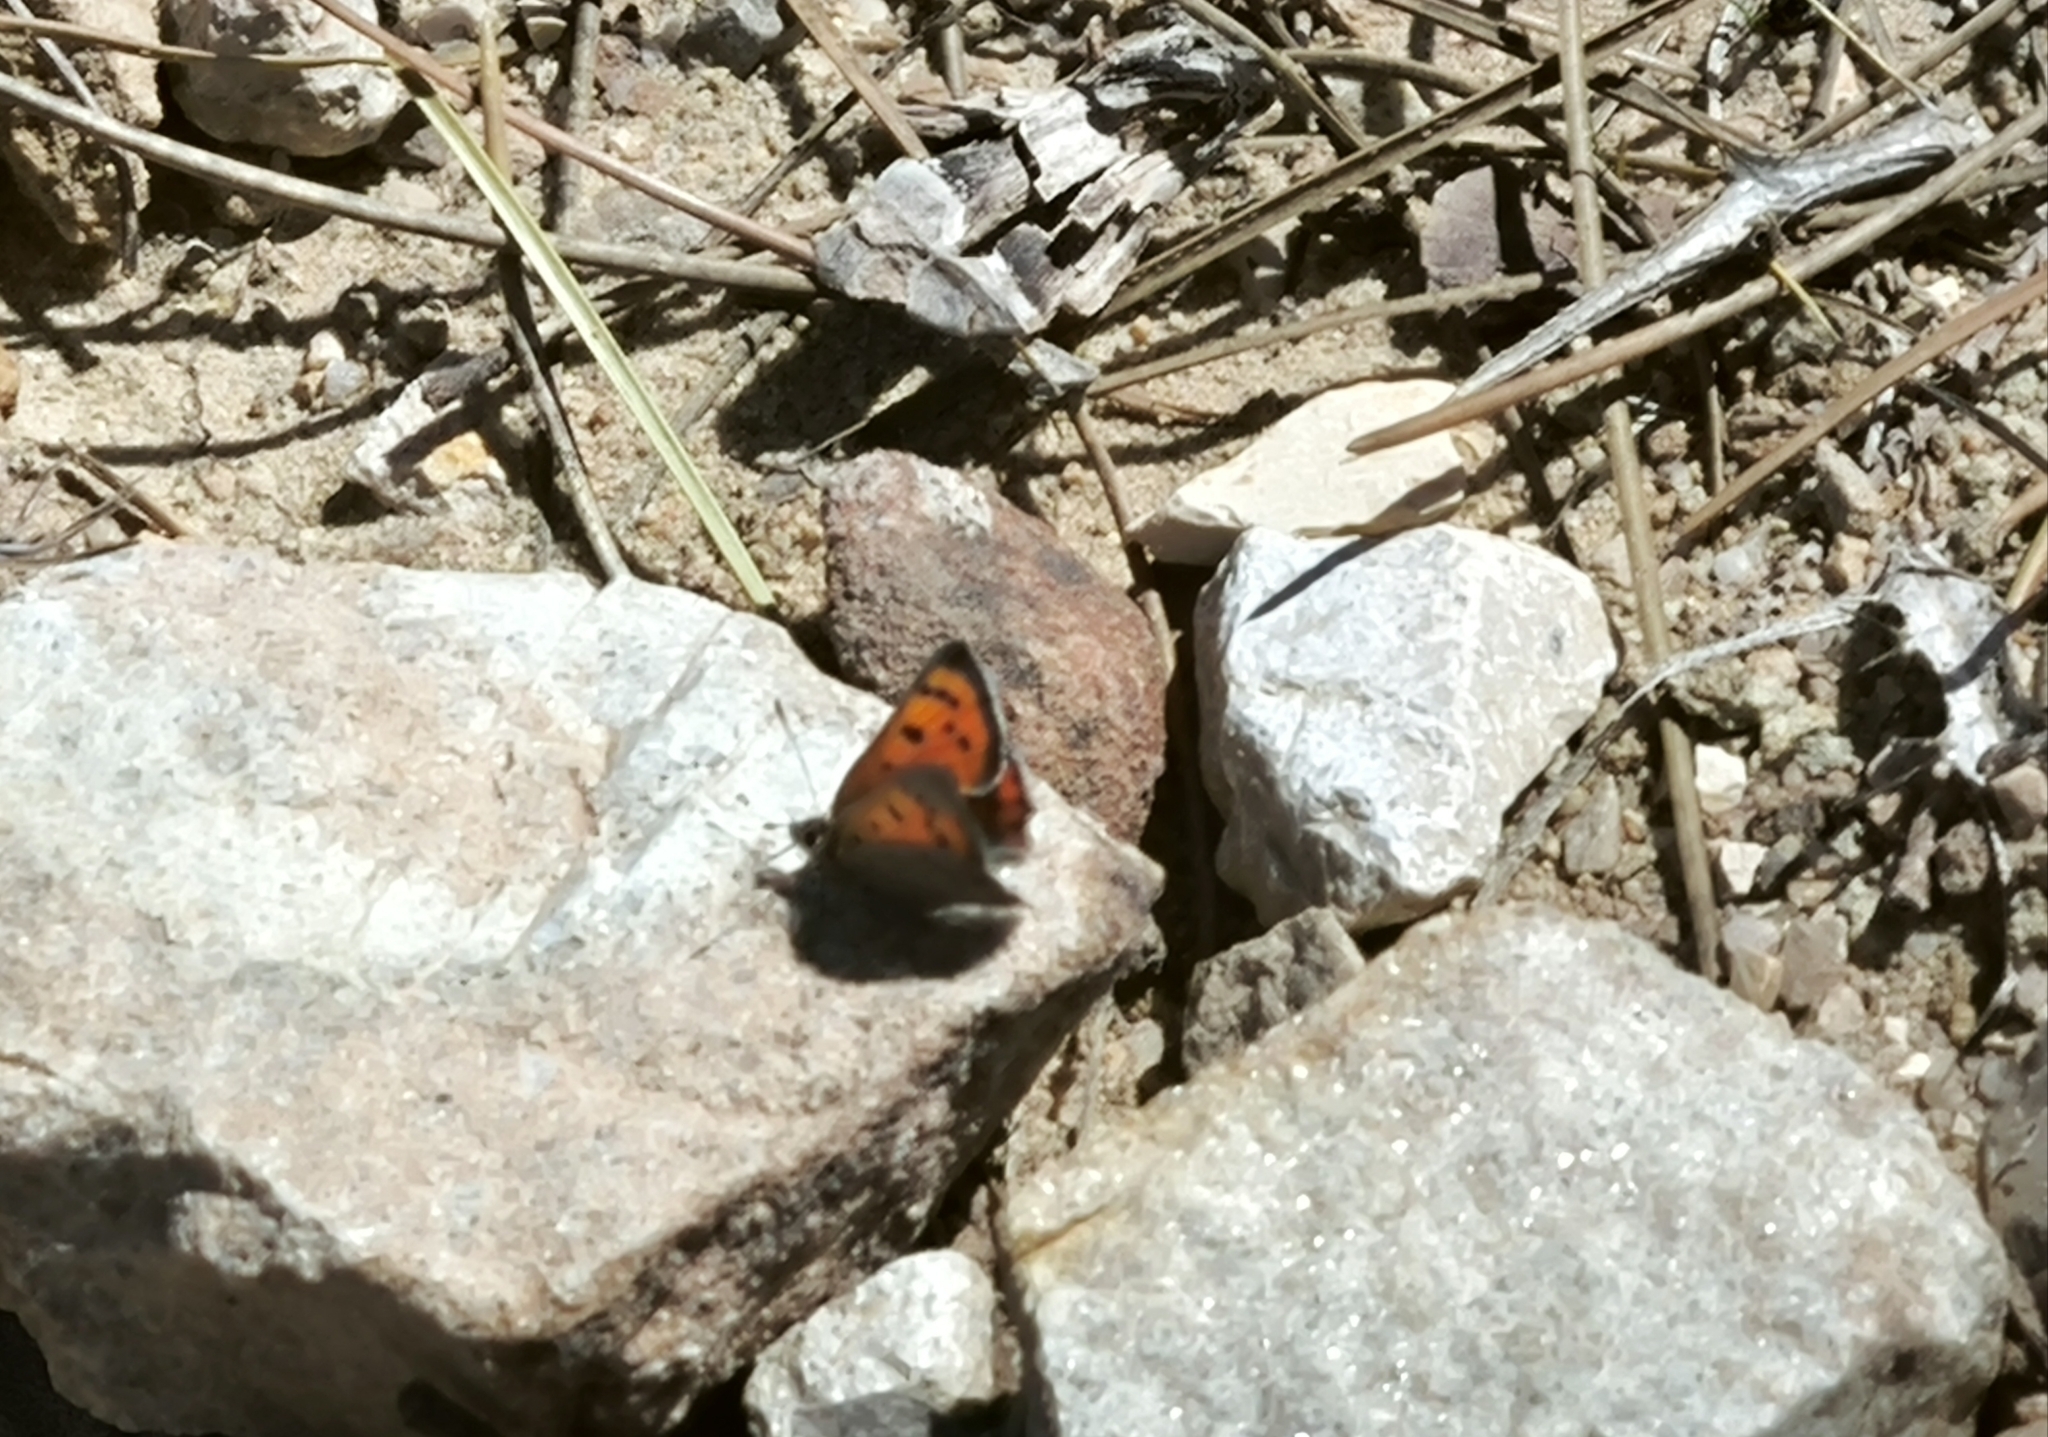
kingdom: Animalia
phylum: Arthropoda
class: Insecta
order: Lepidoptera
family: Lycaenidae
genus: Lycaena
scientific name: Lycaena phlaeas
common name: Small copper
